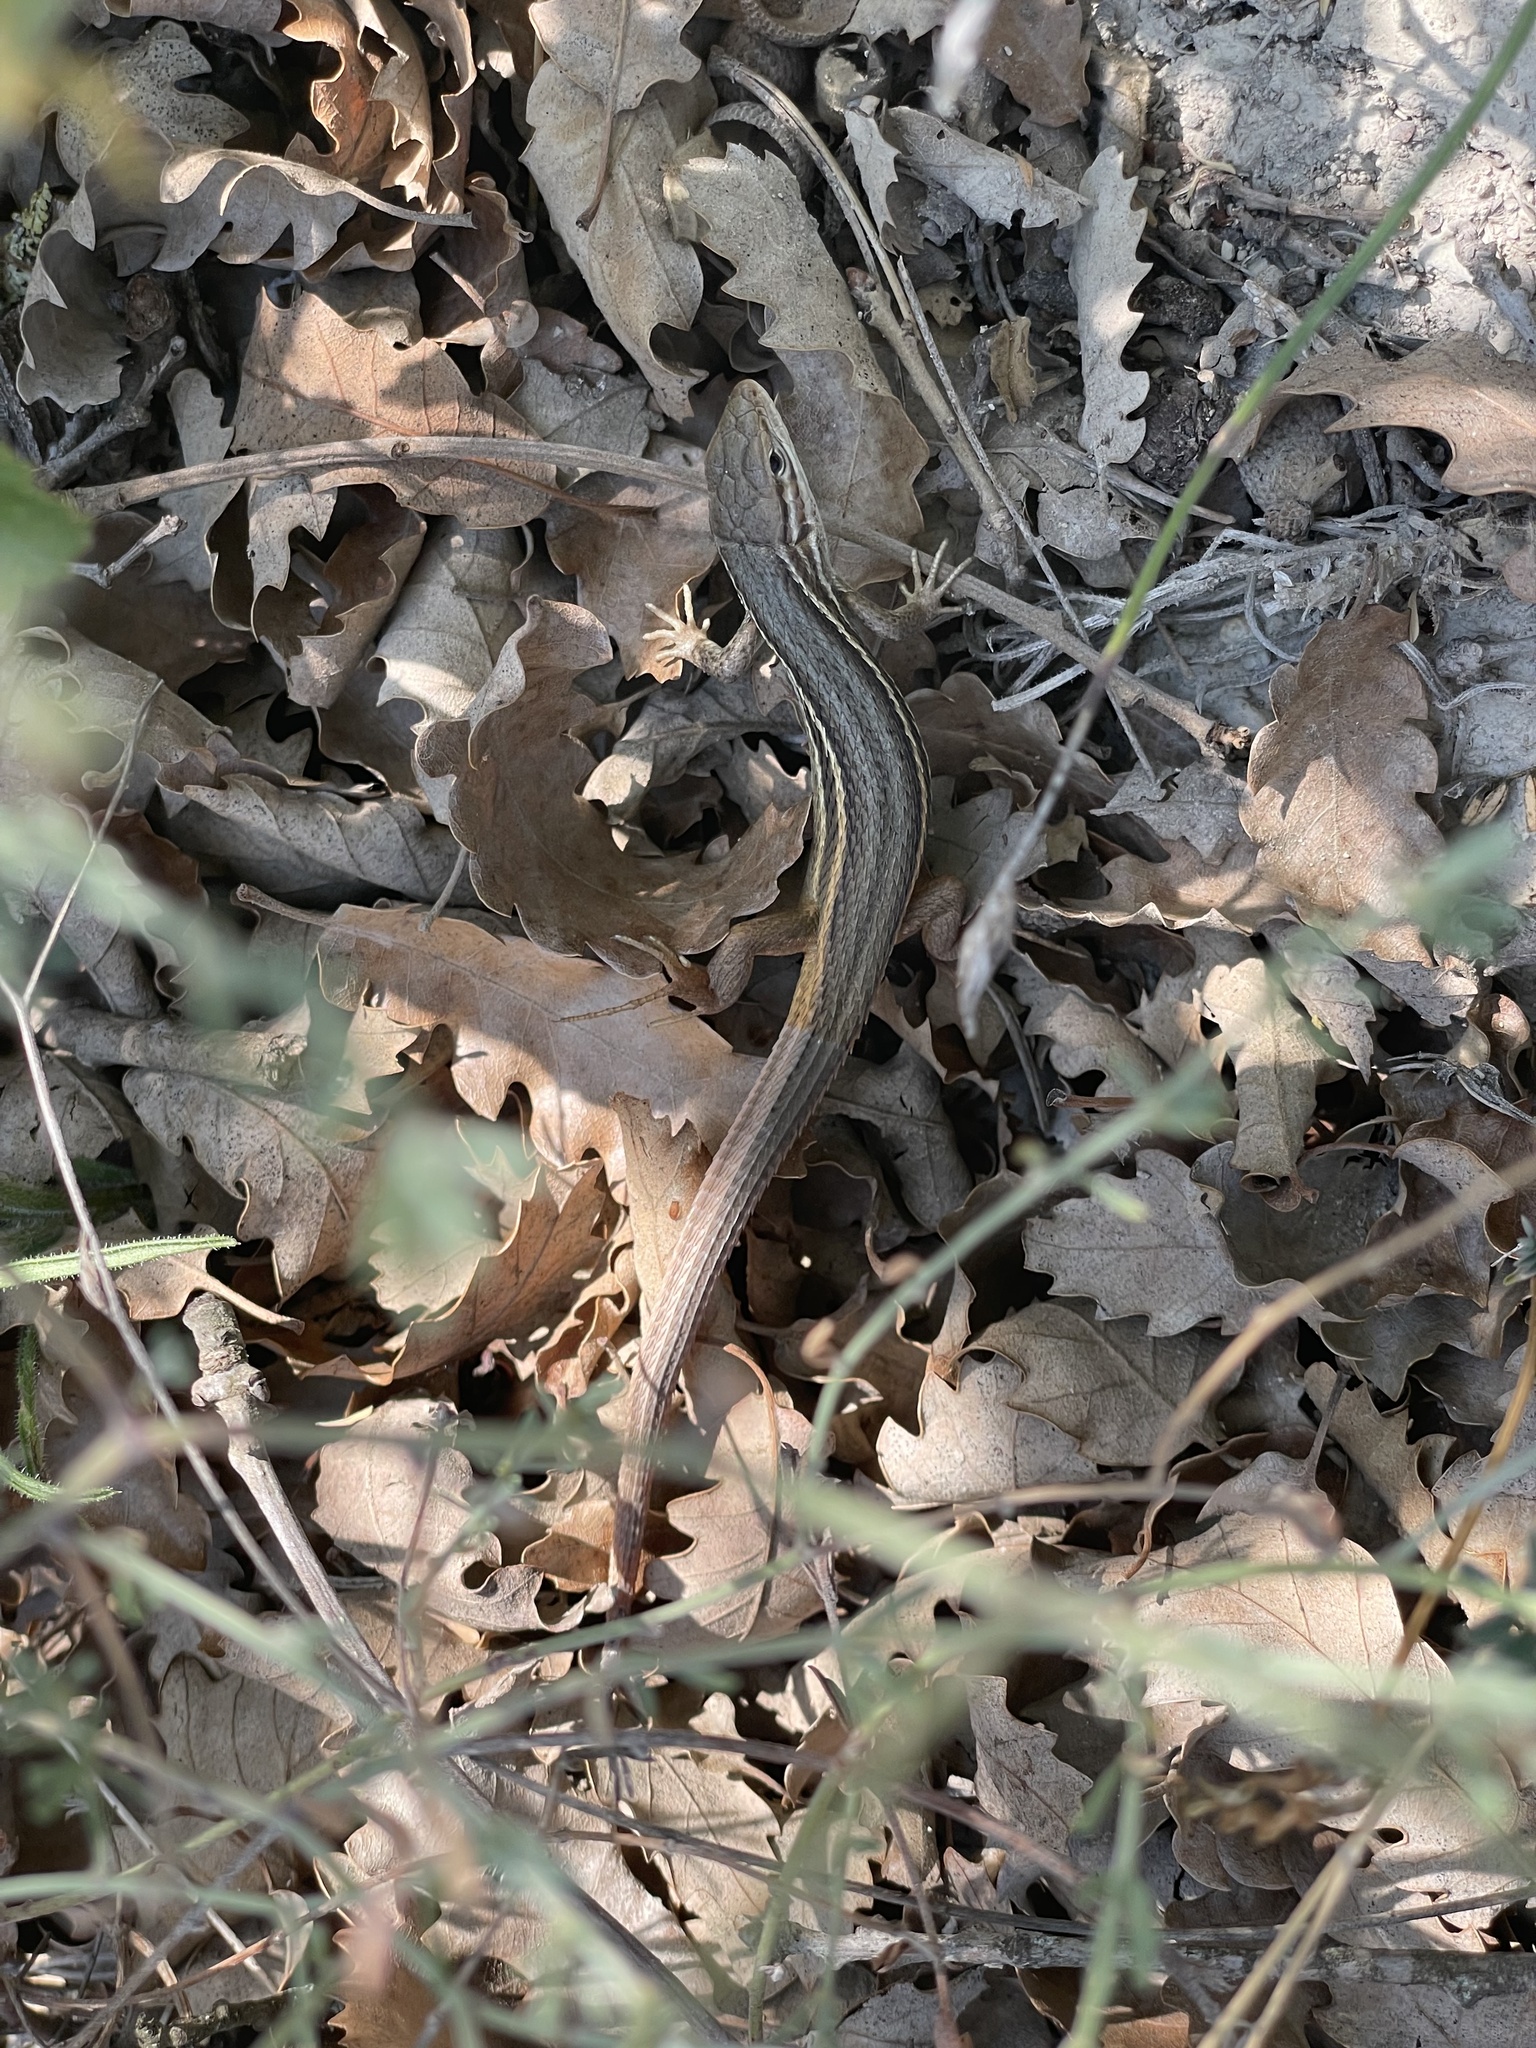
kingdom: Animalia
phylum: Chordata
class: Squamata
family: Lacertidae
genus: Psammodromus
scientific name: Psammodromus algirus
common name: Algerian psammodromus
